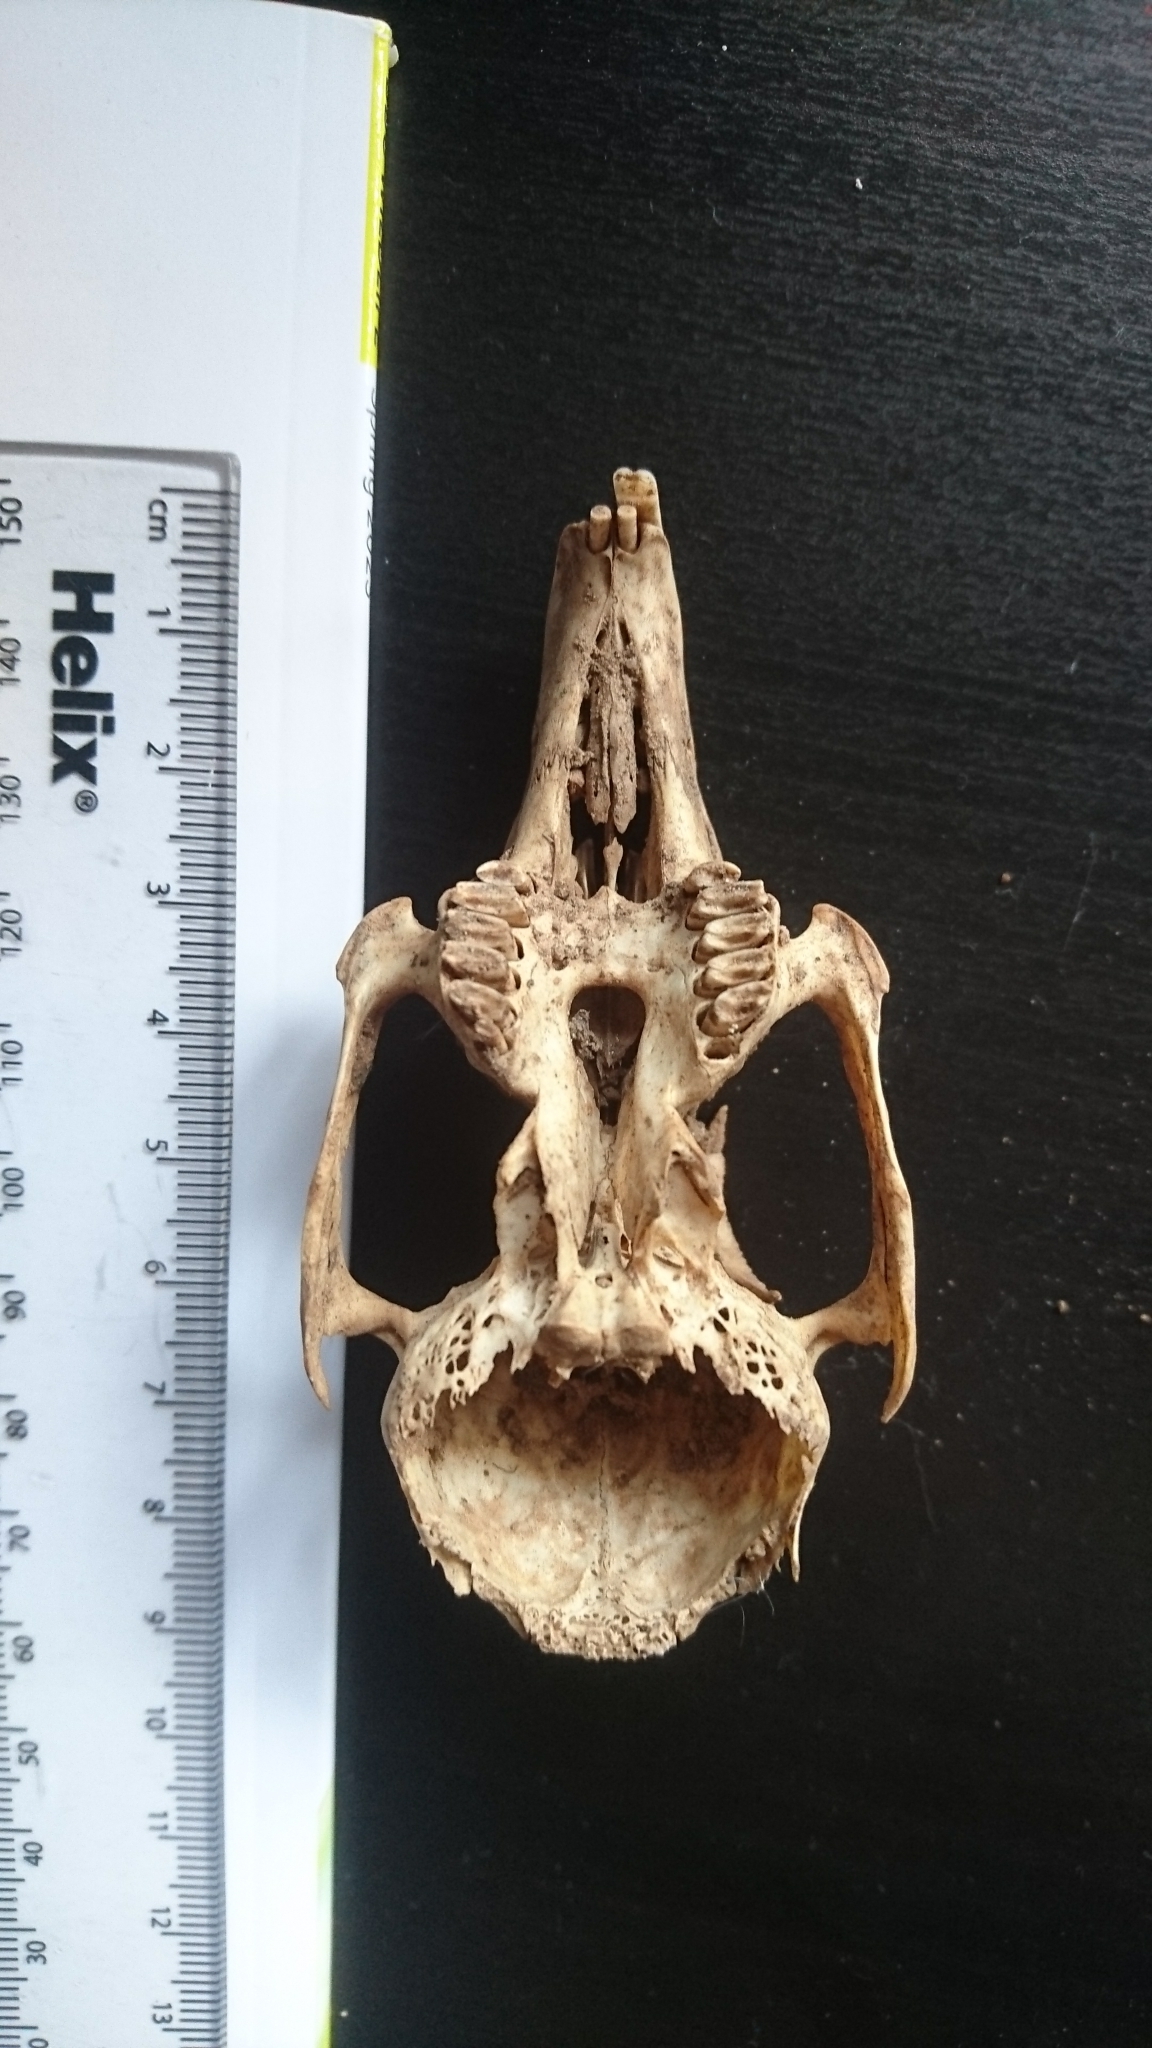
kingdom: Animalia
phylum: Chordata
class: Mammalia
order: Lagomorpha
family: Leporidae
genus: Oryctolagus
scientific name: Oryctolagus cuniculus
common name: European rabbit
